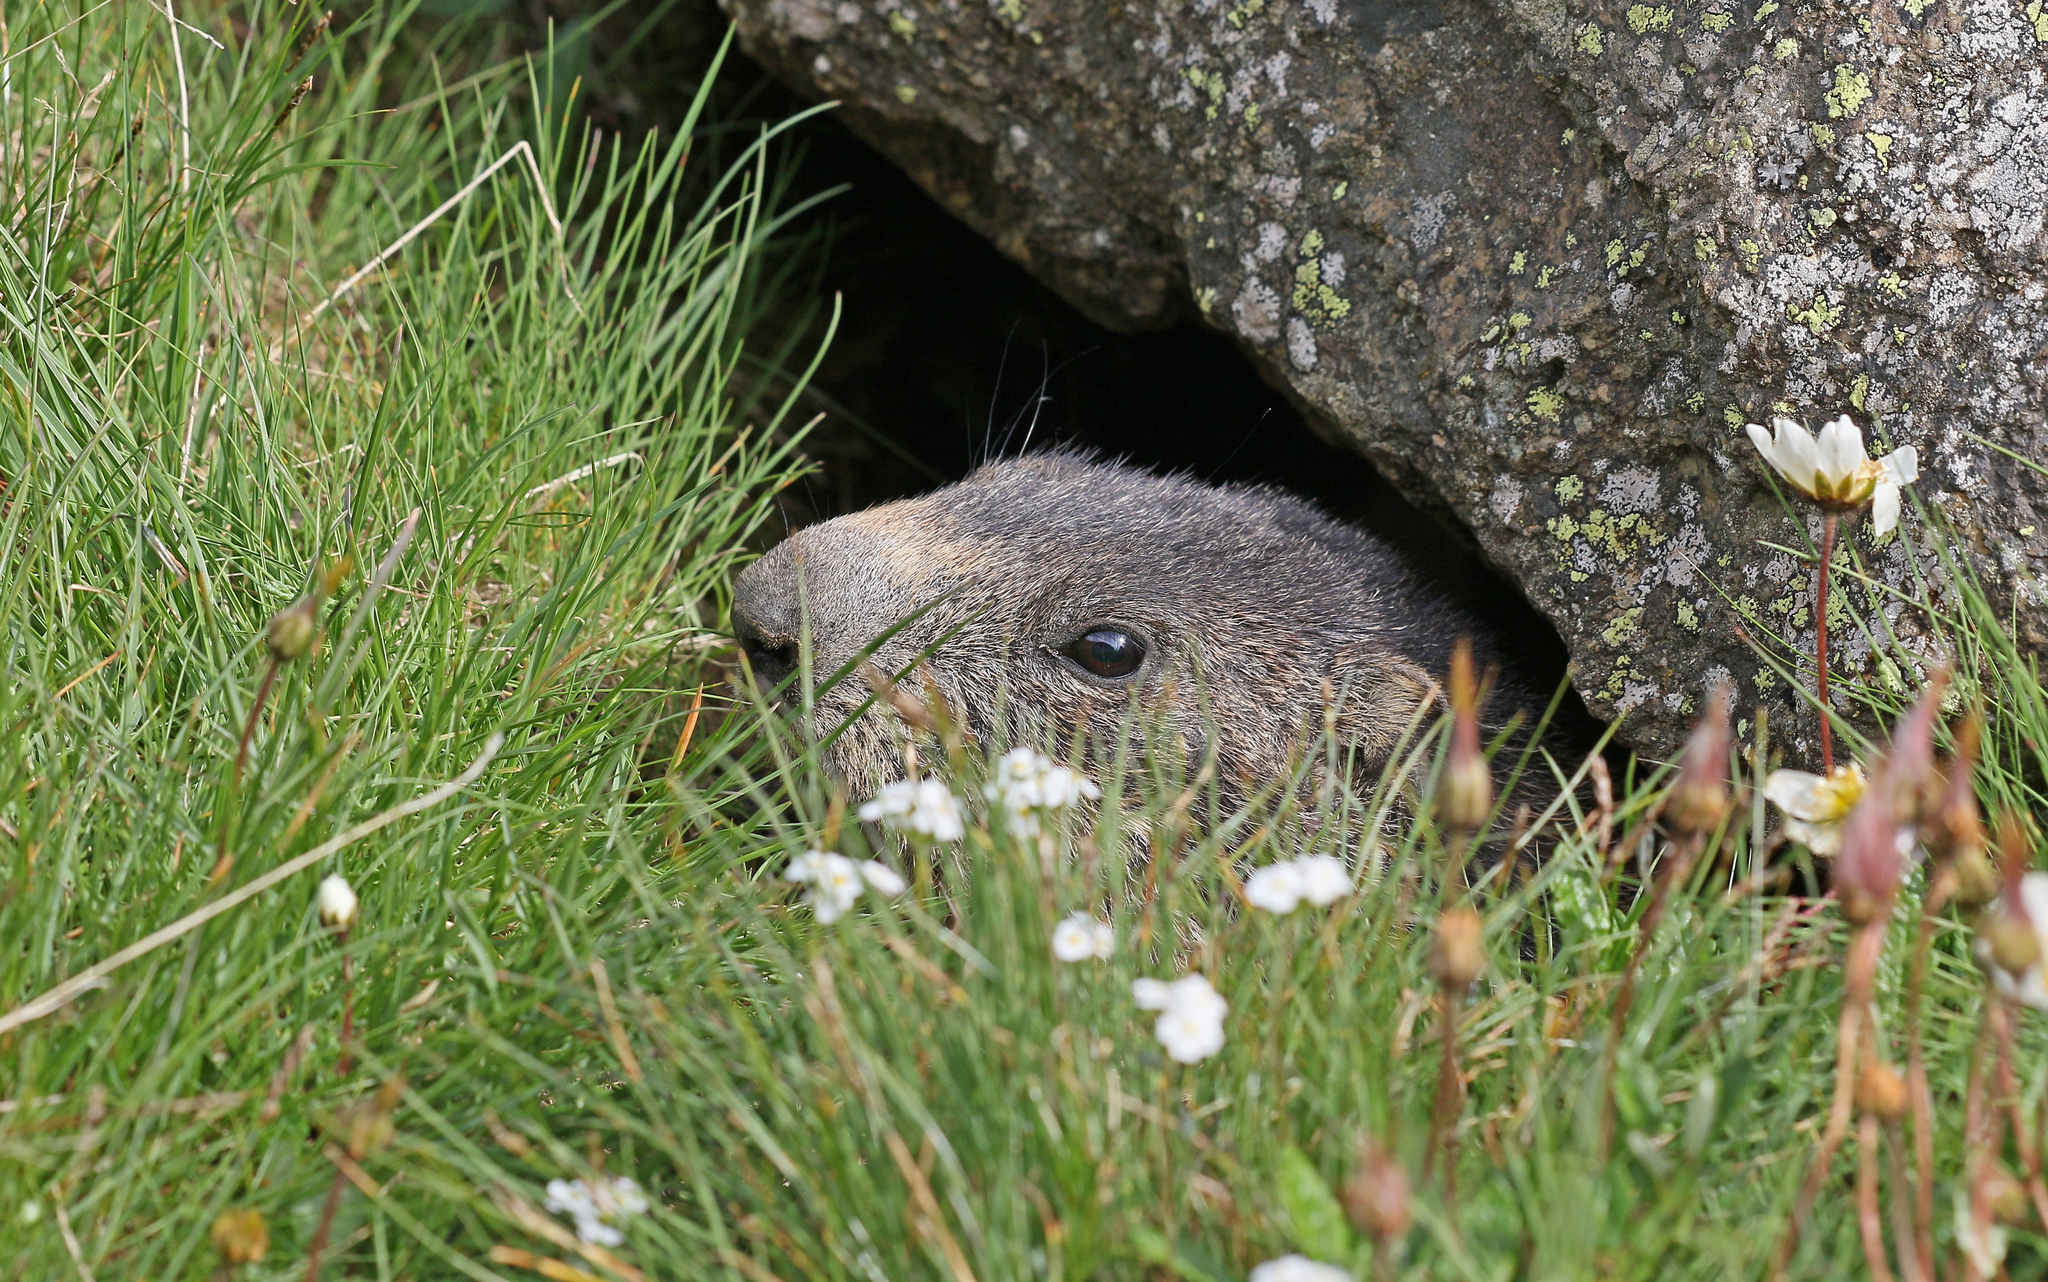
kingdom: Animalia
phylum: Chordata
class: Mammalia
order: Rodentia
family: Sciuridae
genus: Marmota
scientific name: Marmota marmota
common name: Alpine marmot
